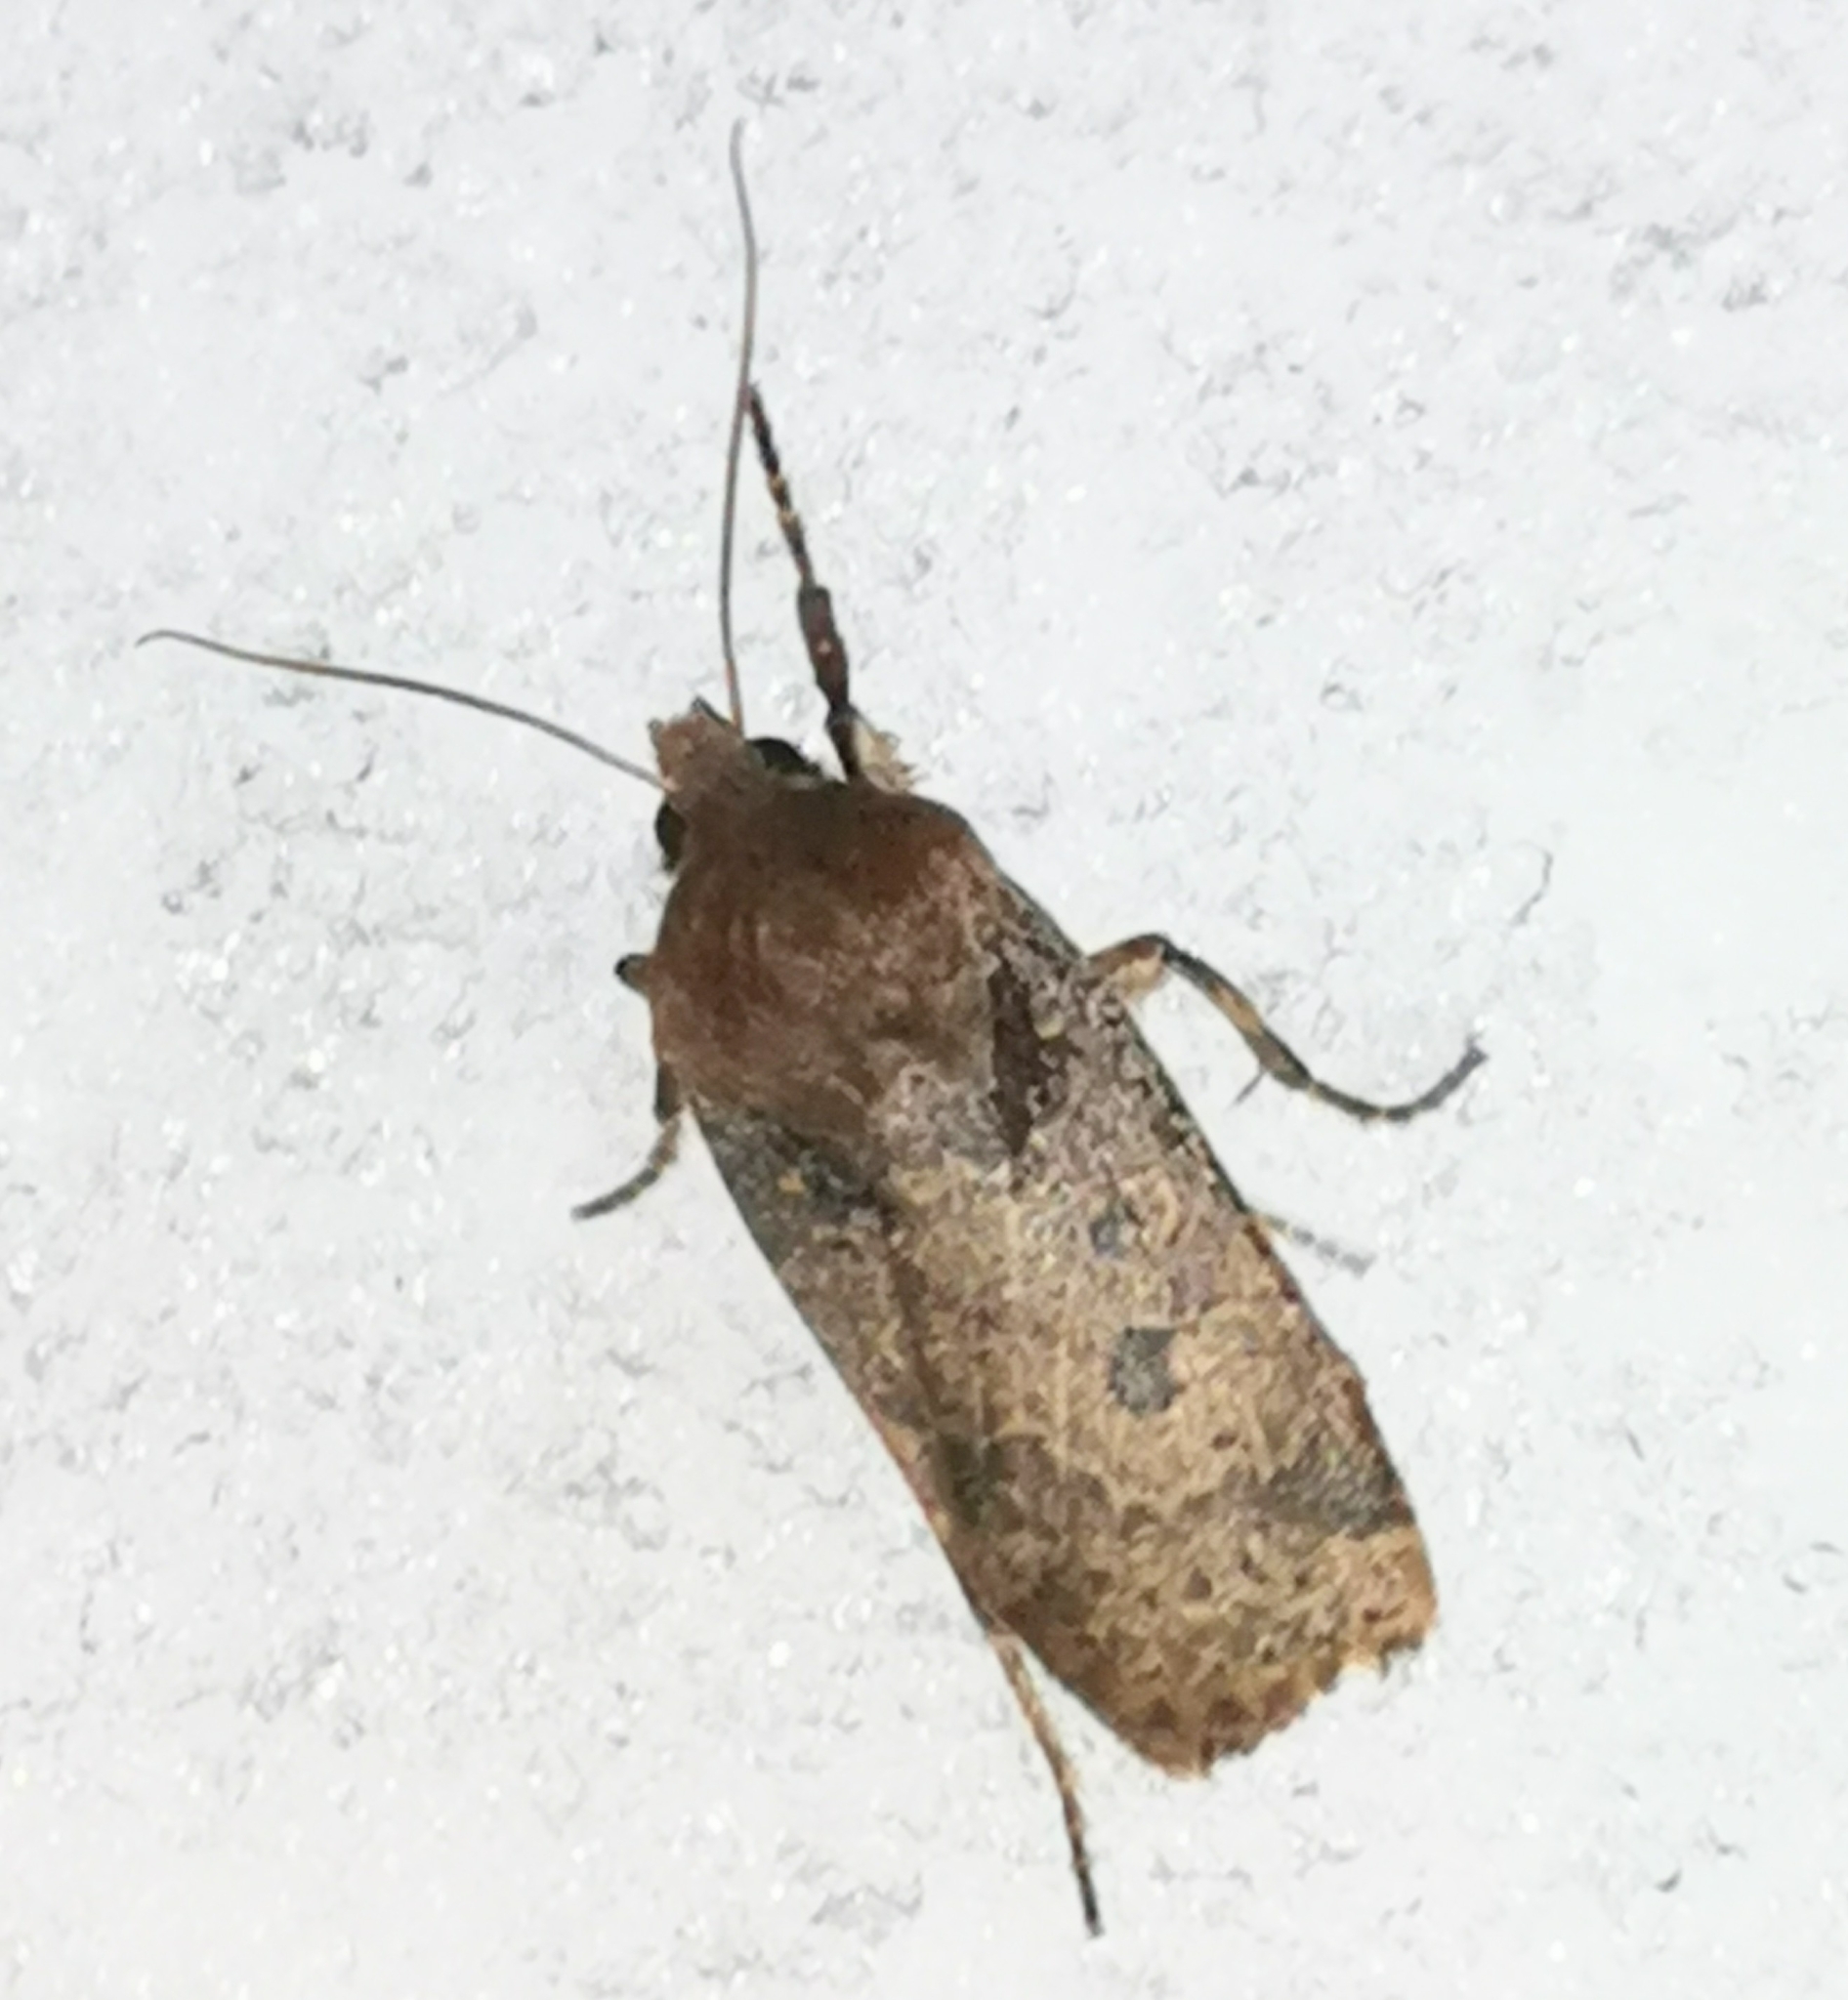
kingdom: Animalia
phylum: Arthropoda
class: Insecta
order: Lepidoptera
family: Noctuidae
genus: Conistra
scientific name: Conistra vaccinii
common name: Chestnut
